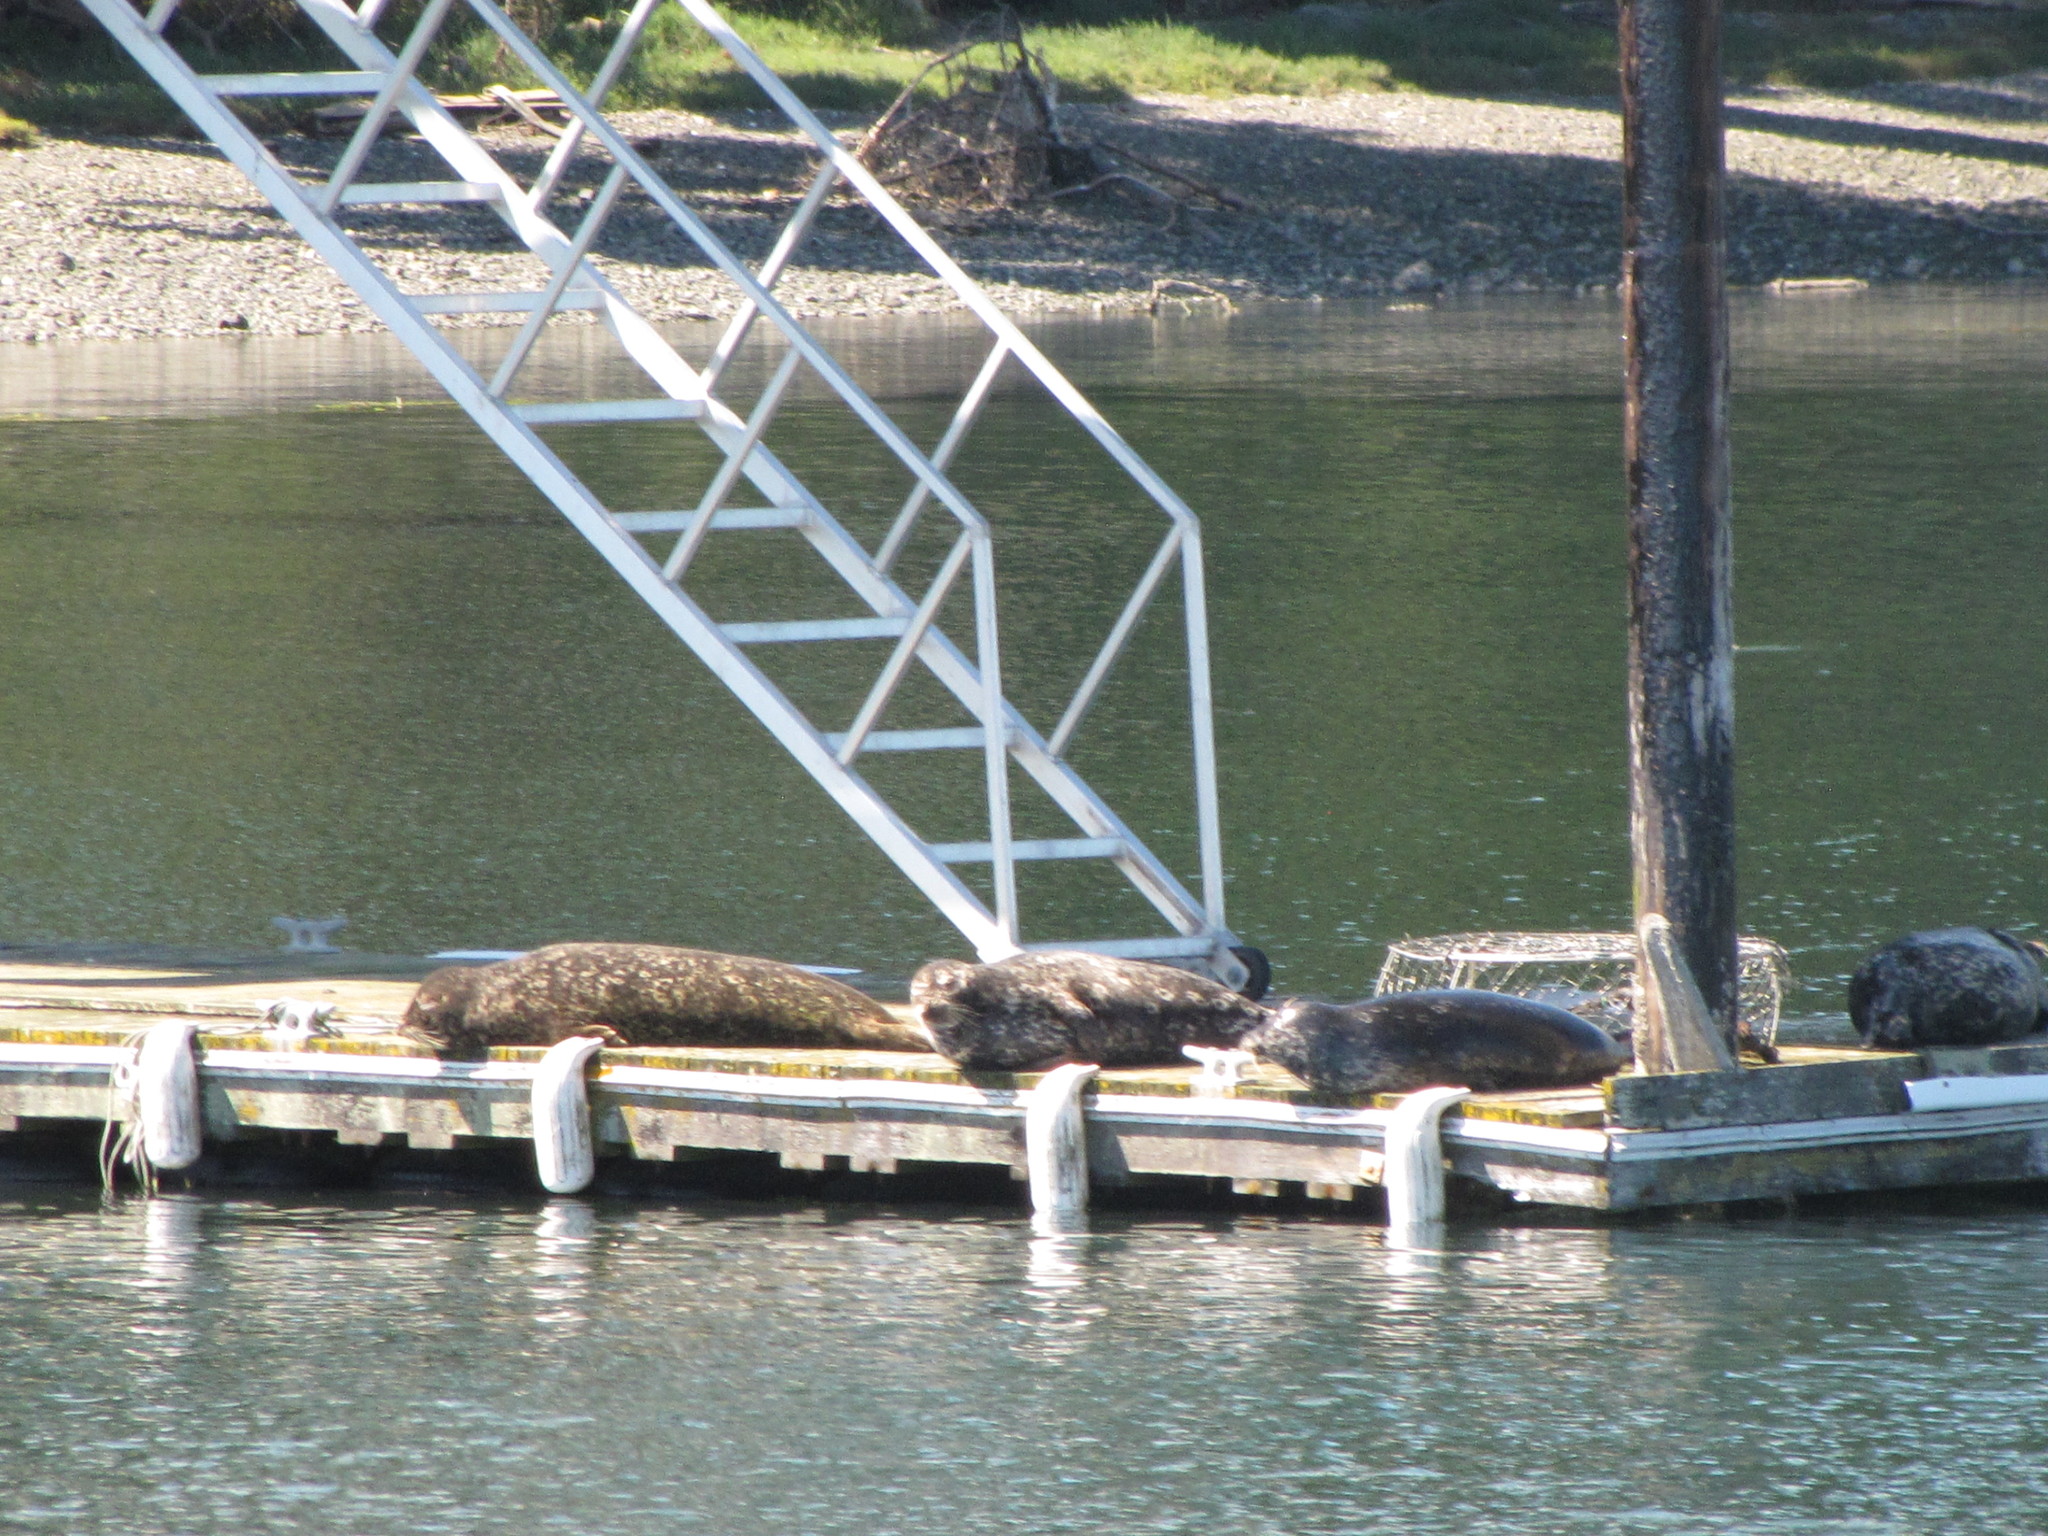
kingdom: Animalia
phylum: Chordata
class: Mammalia
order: Carnivora
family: Phocidae
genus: Phoca
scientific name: Phoca vitulina
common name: Harbor seal
